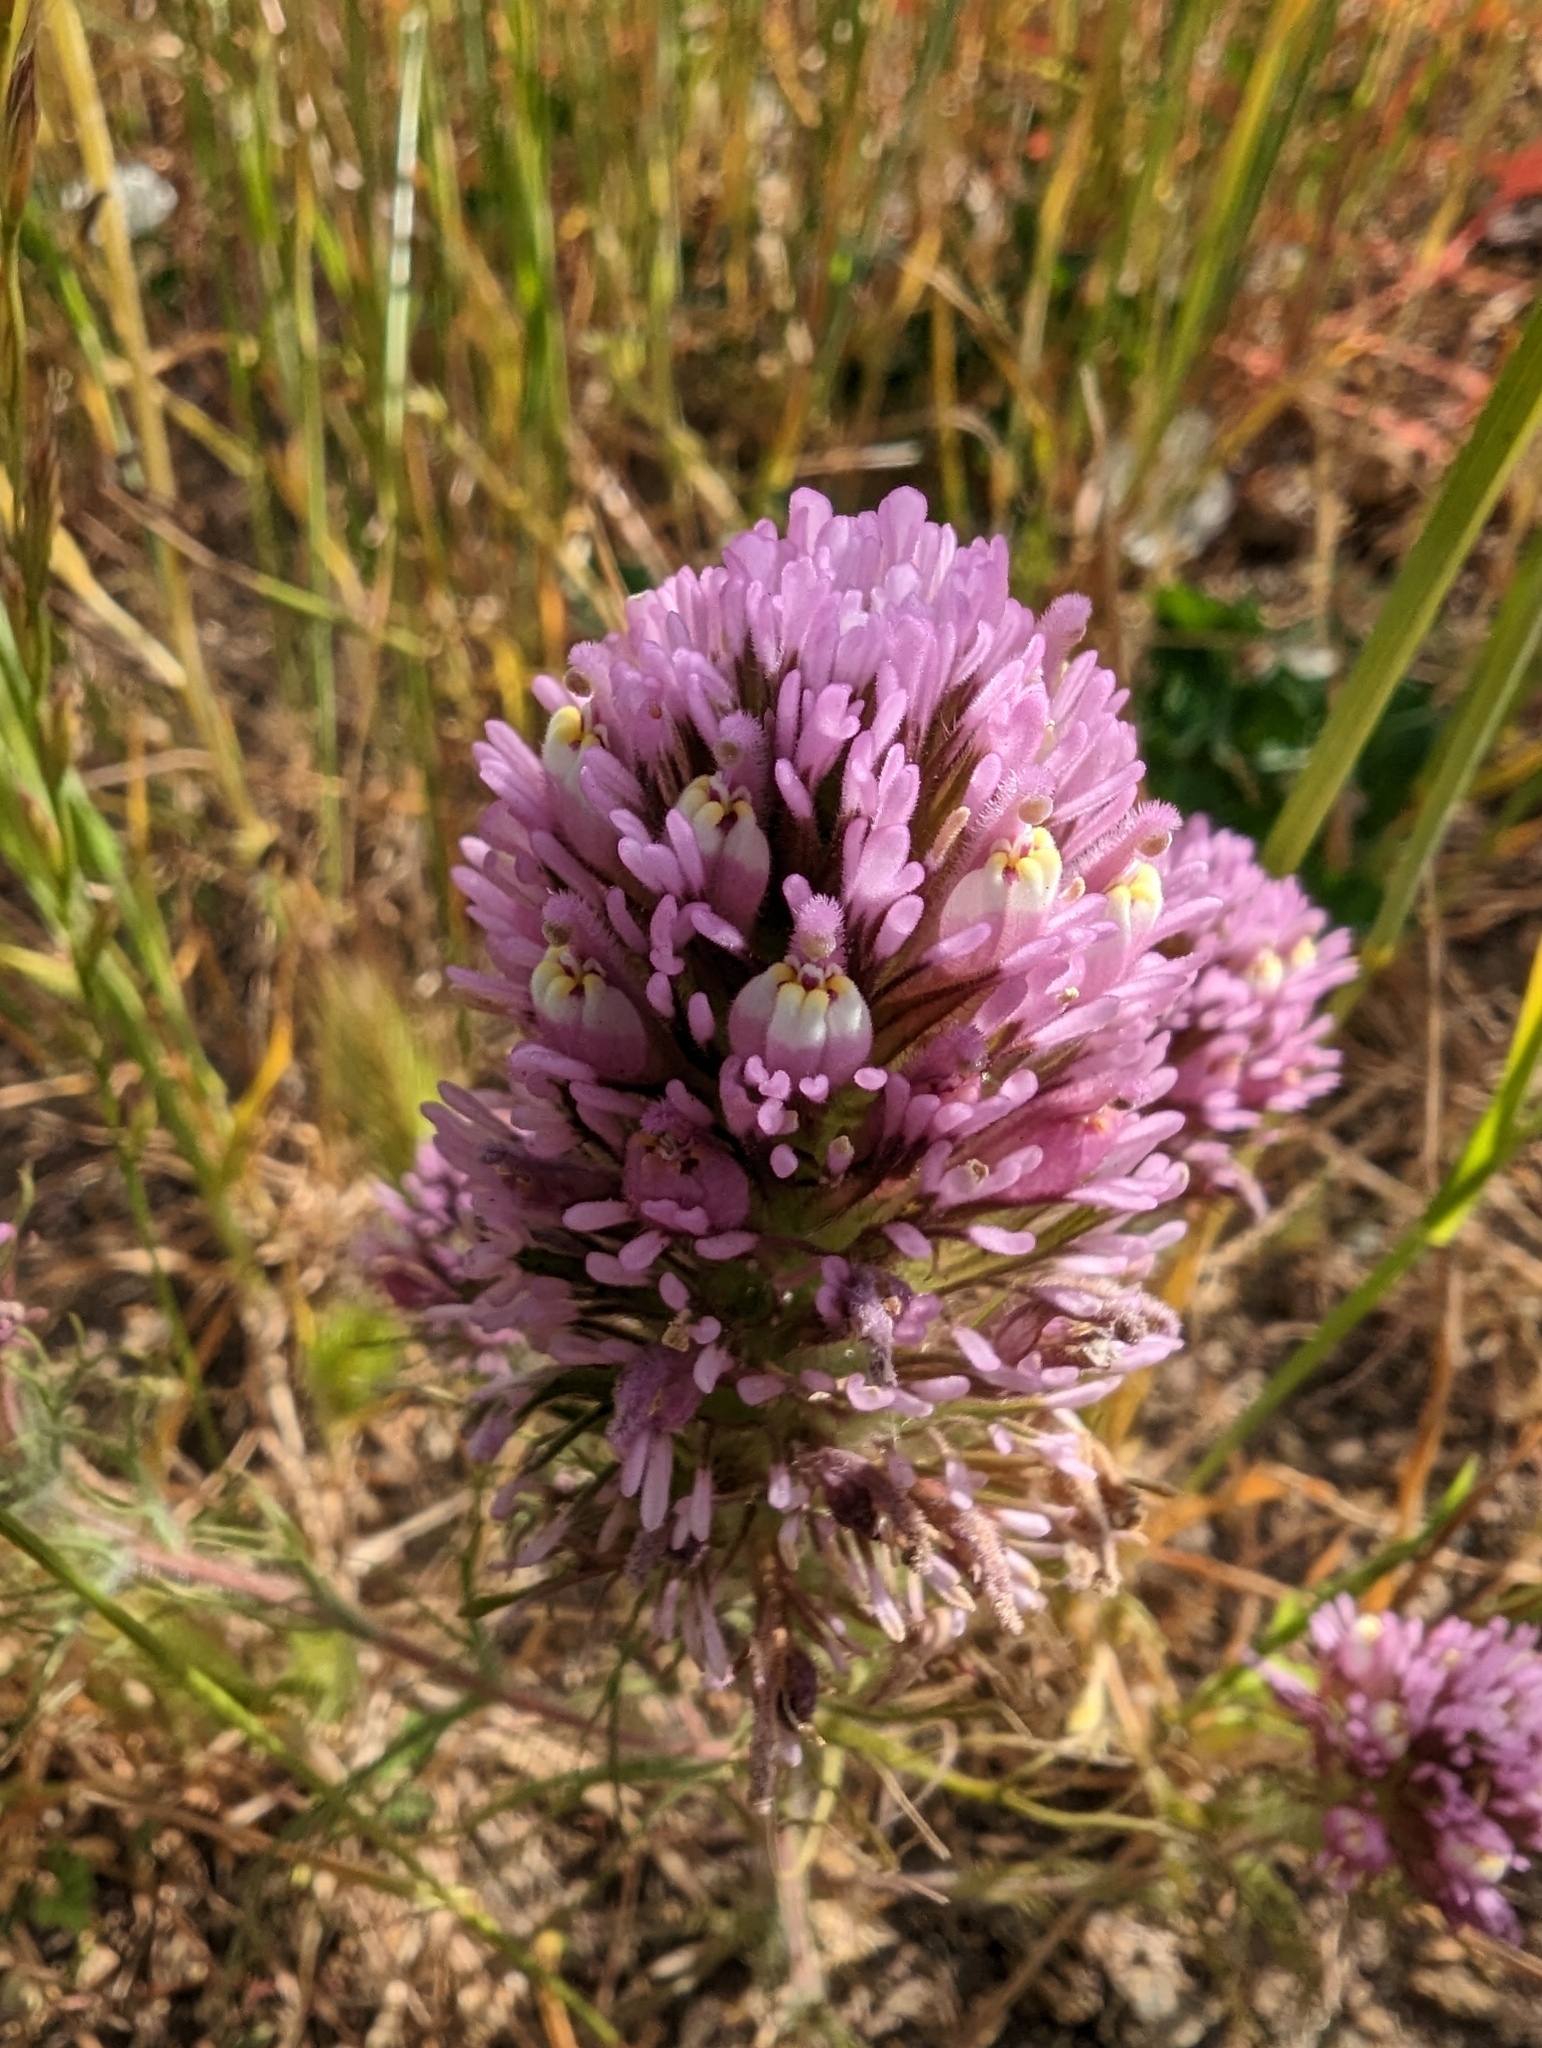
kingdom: Plantae
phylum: Tracheophyta
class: Magnoliopsida
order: Lamiales
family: Orobanchaceae
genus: Castilleja
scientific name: Castilleja exserta
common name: Purple owl-clover
